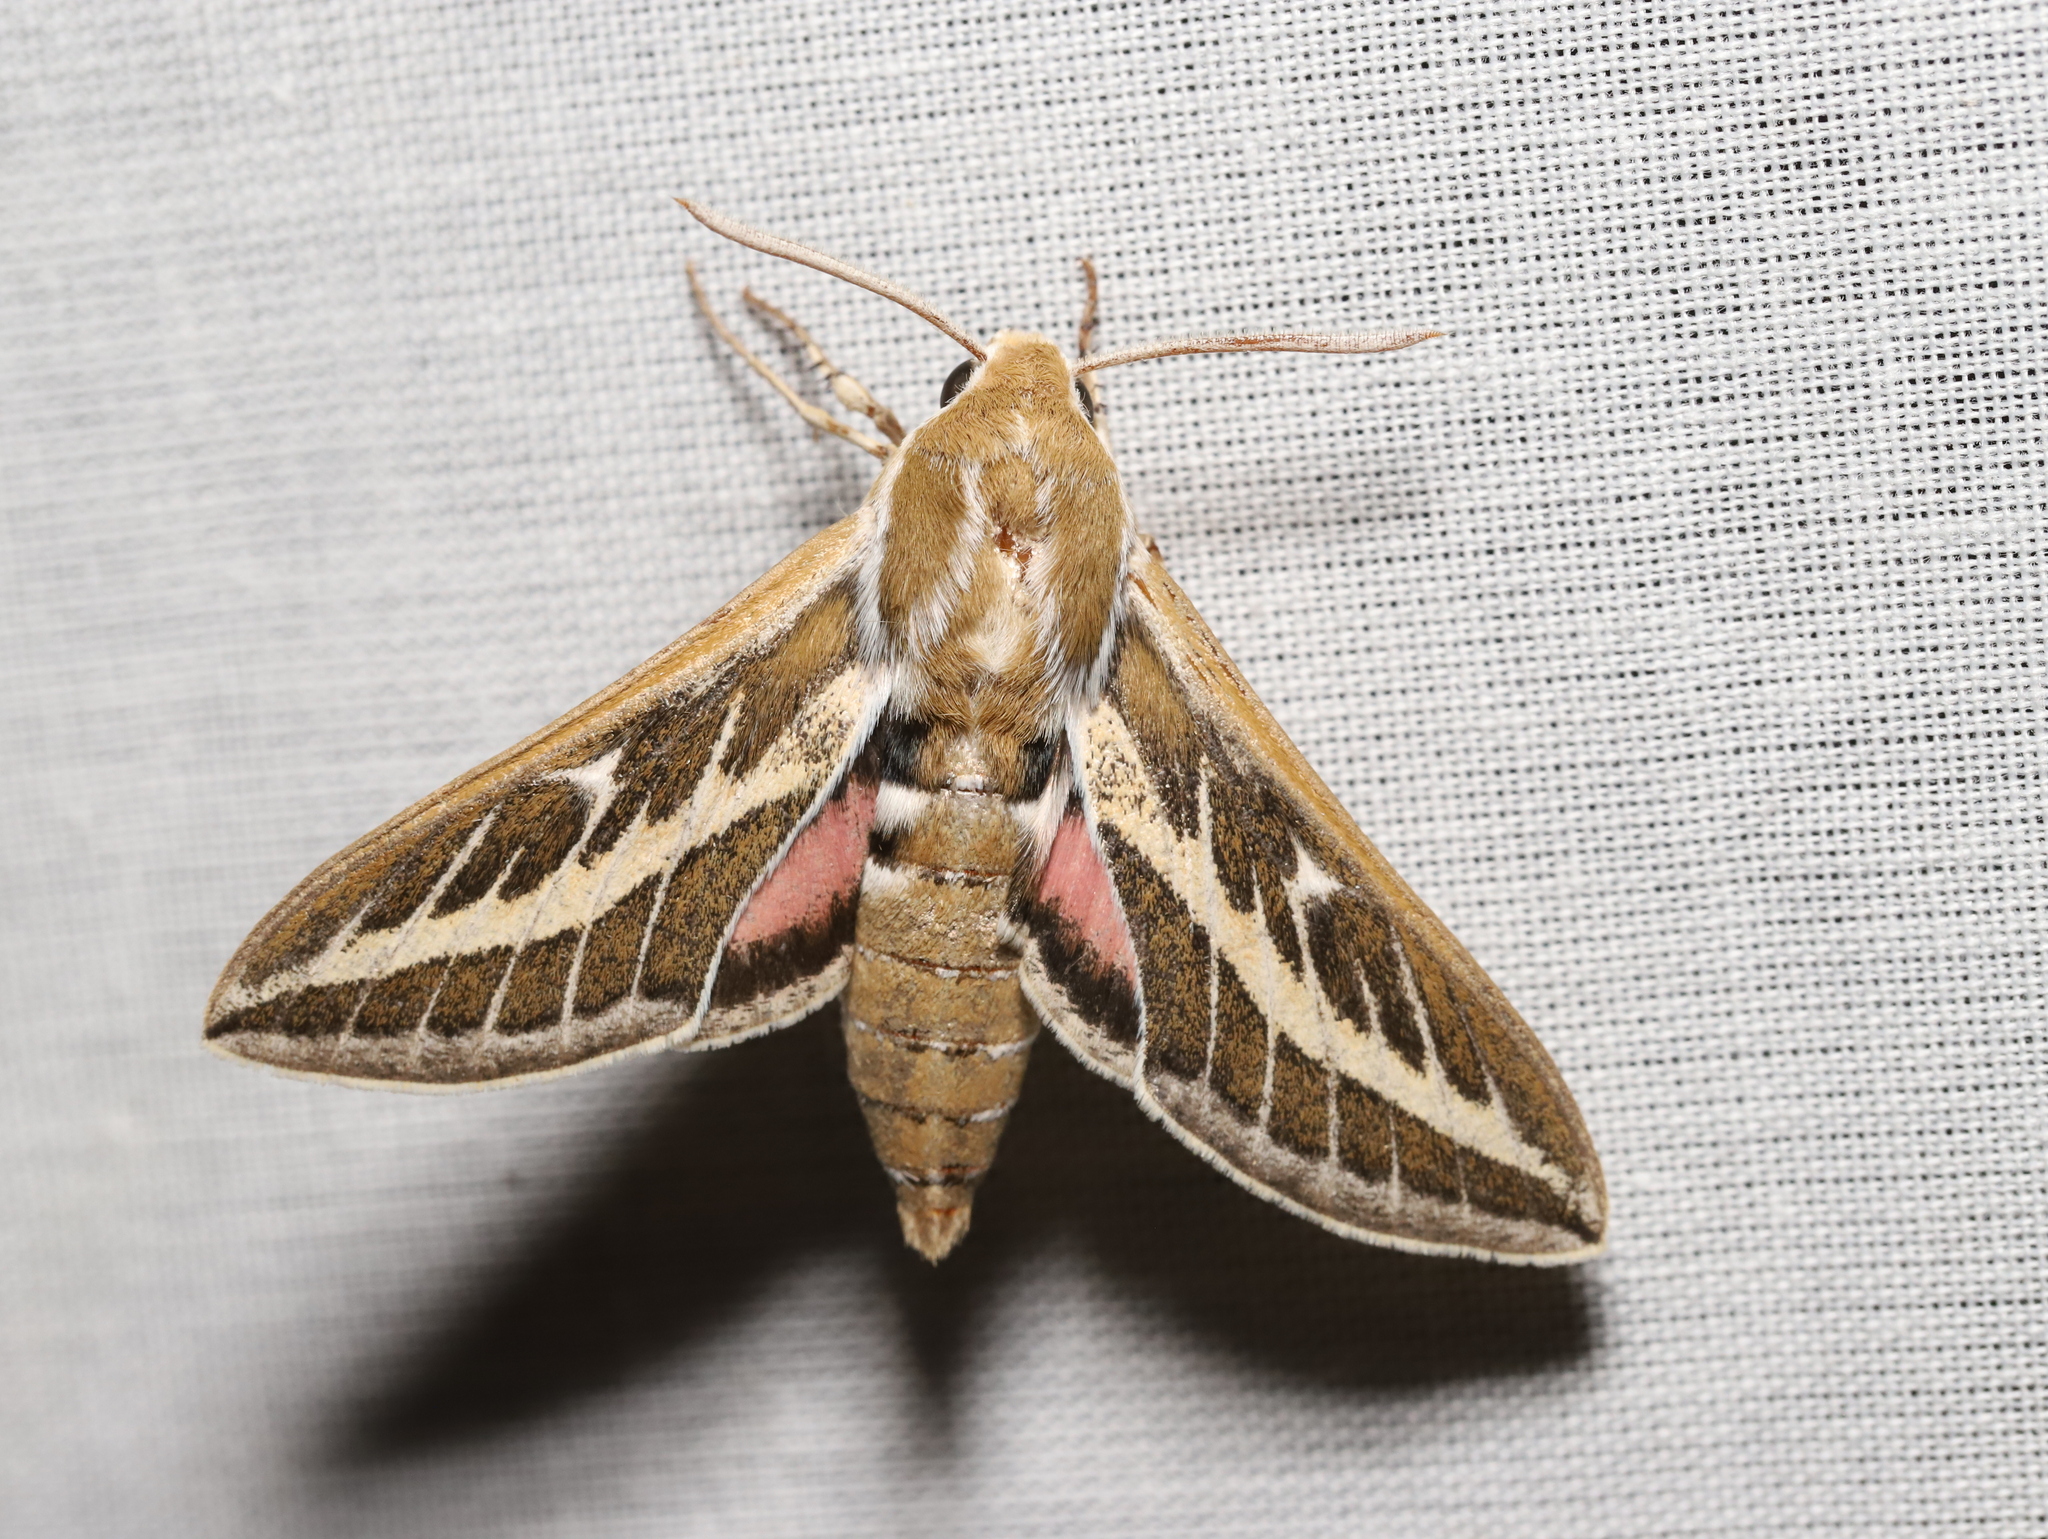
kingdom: Animalia
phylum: Arthropoda
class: Insecta
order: Lepidoptera
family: Sphingidae
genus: Hyles
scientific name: Hyles livornicoides
